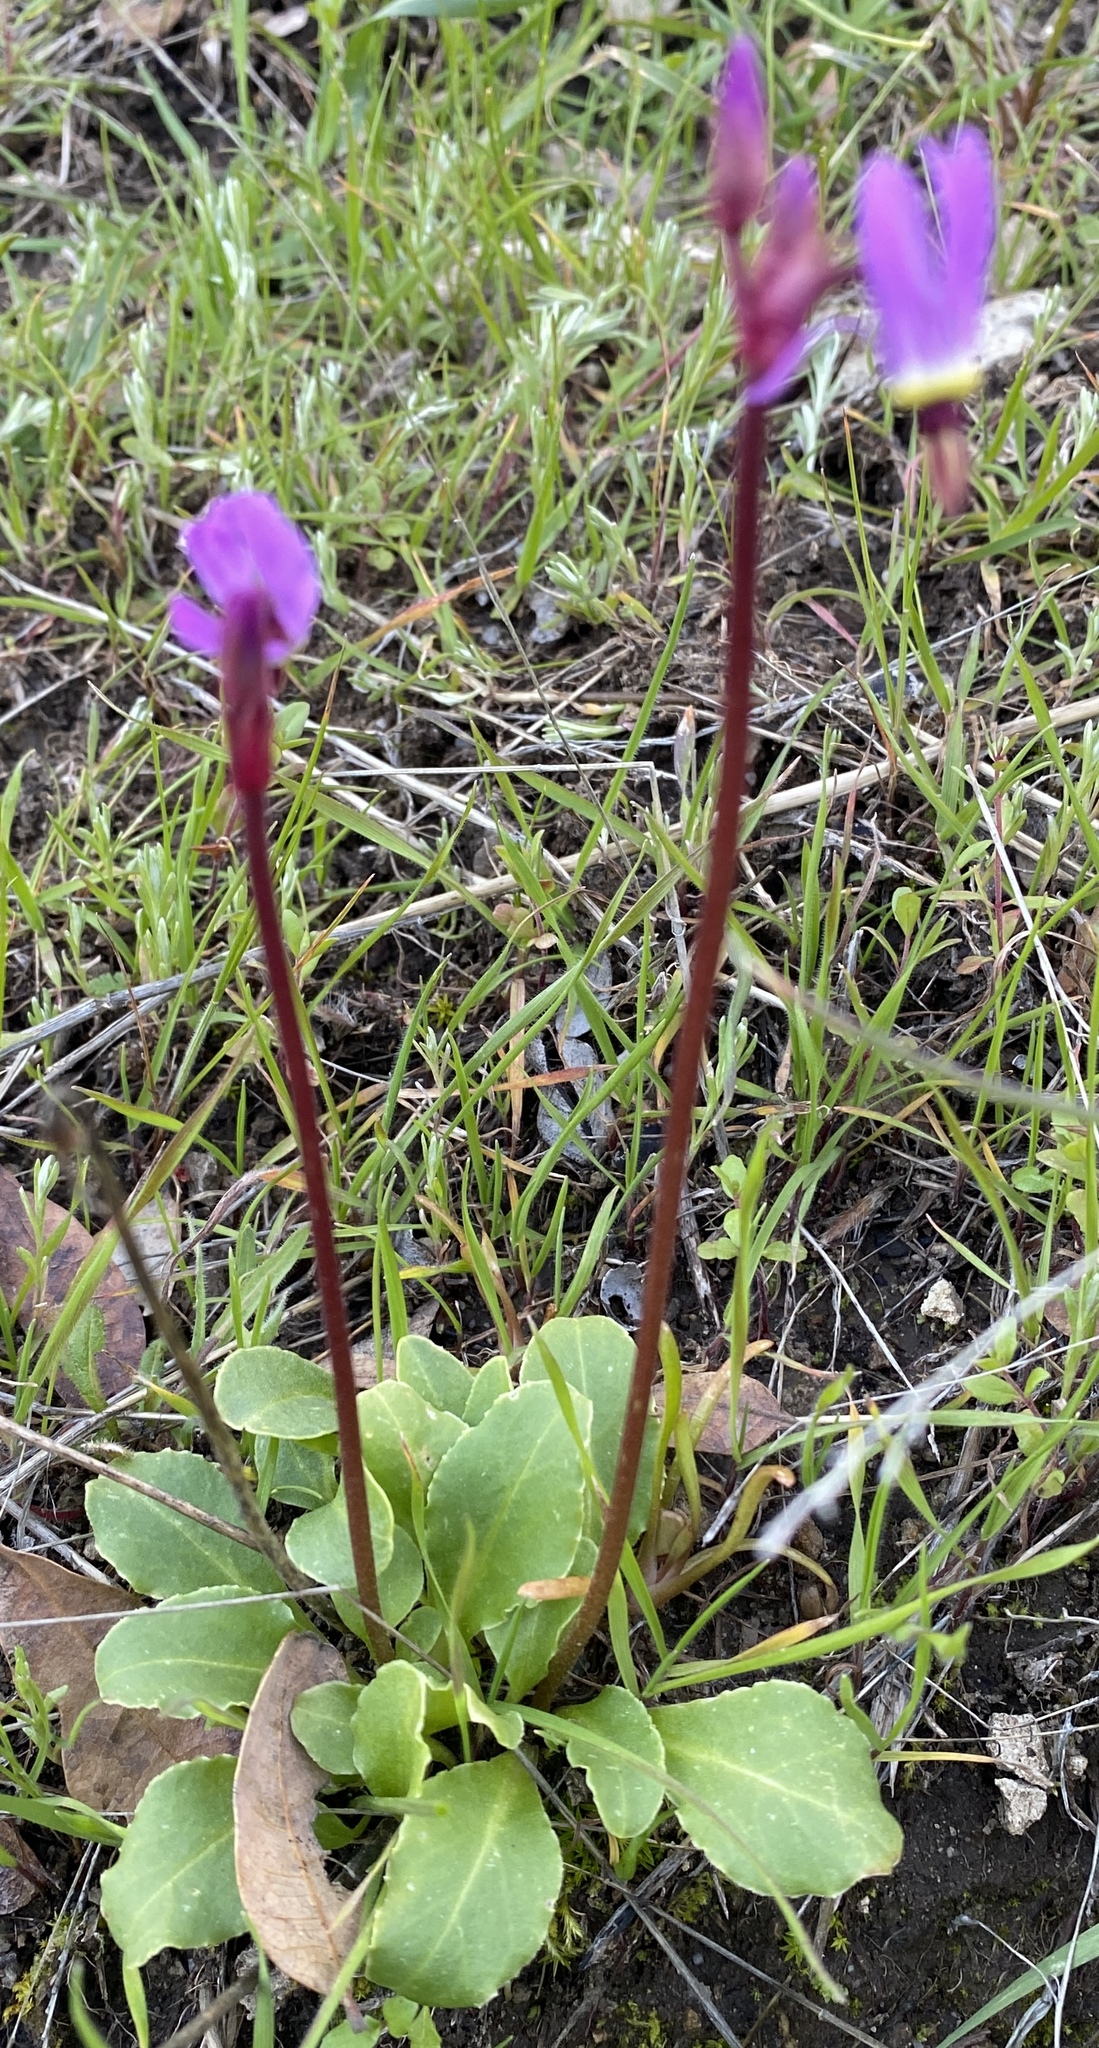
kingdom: Plantae
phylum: Tracheophyta
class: Magnoliopsida
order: Ericales
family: Primulaceae
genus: Dodecatheon
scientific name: Dodecatheon hendersonii
